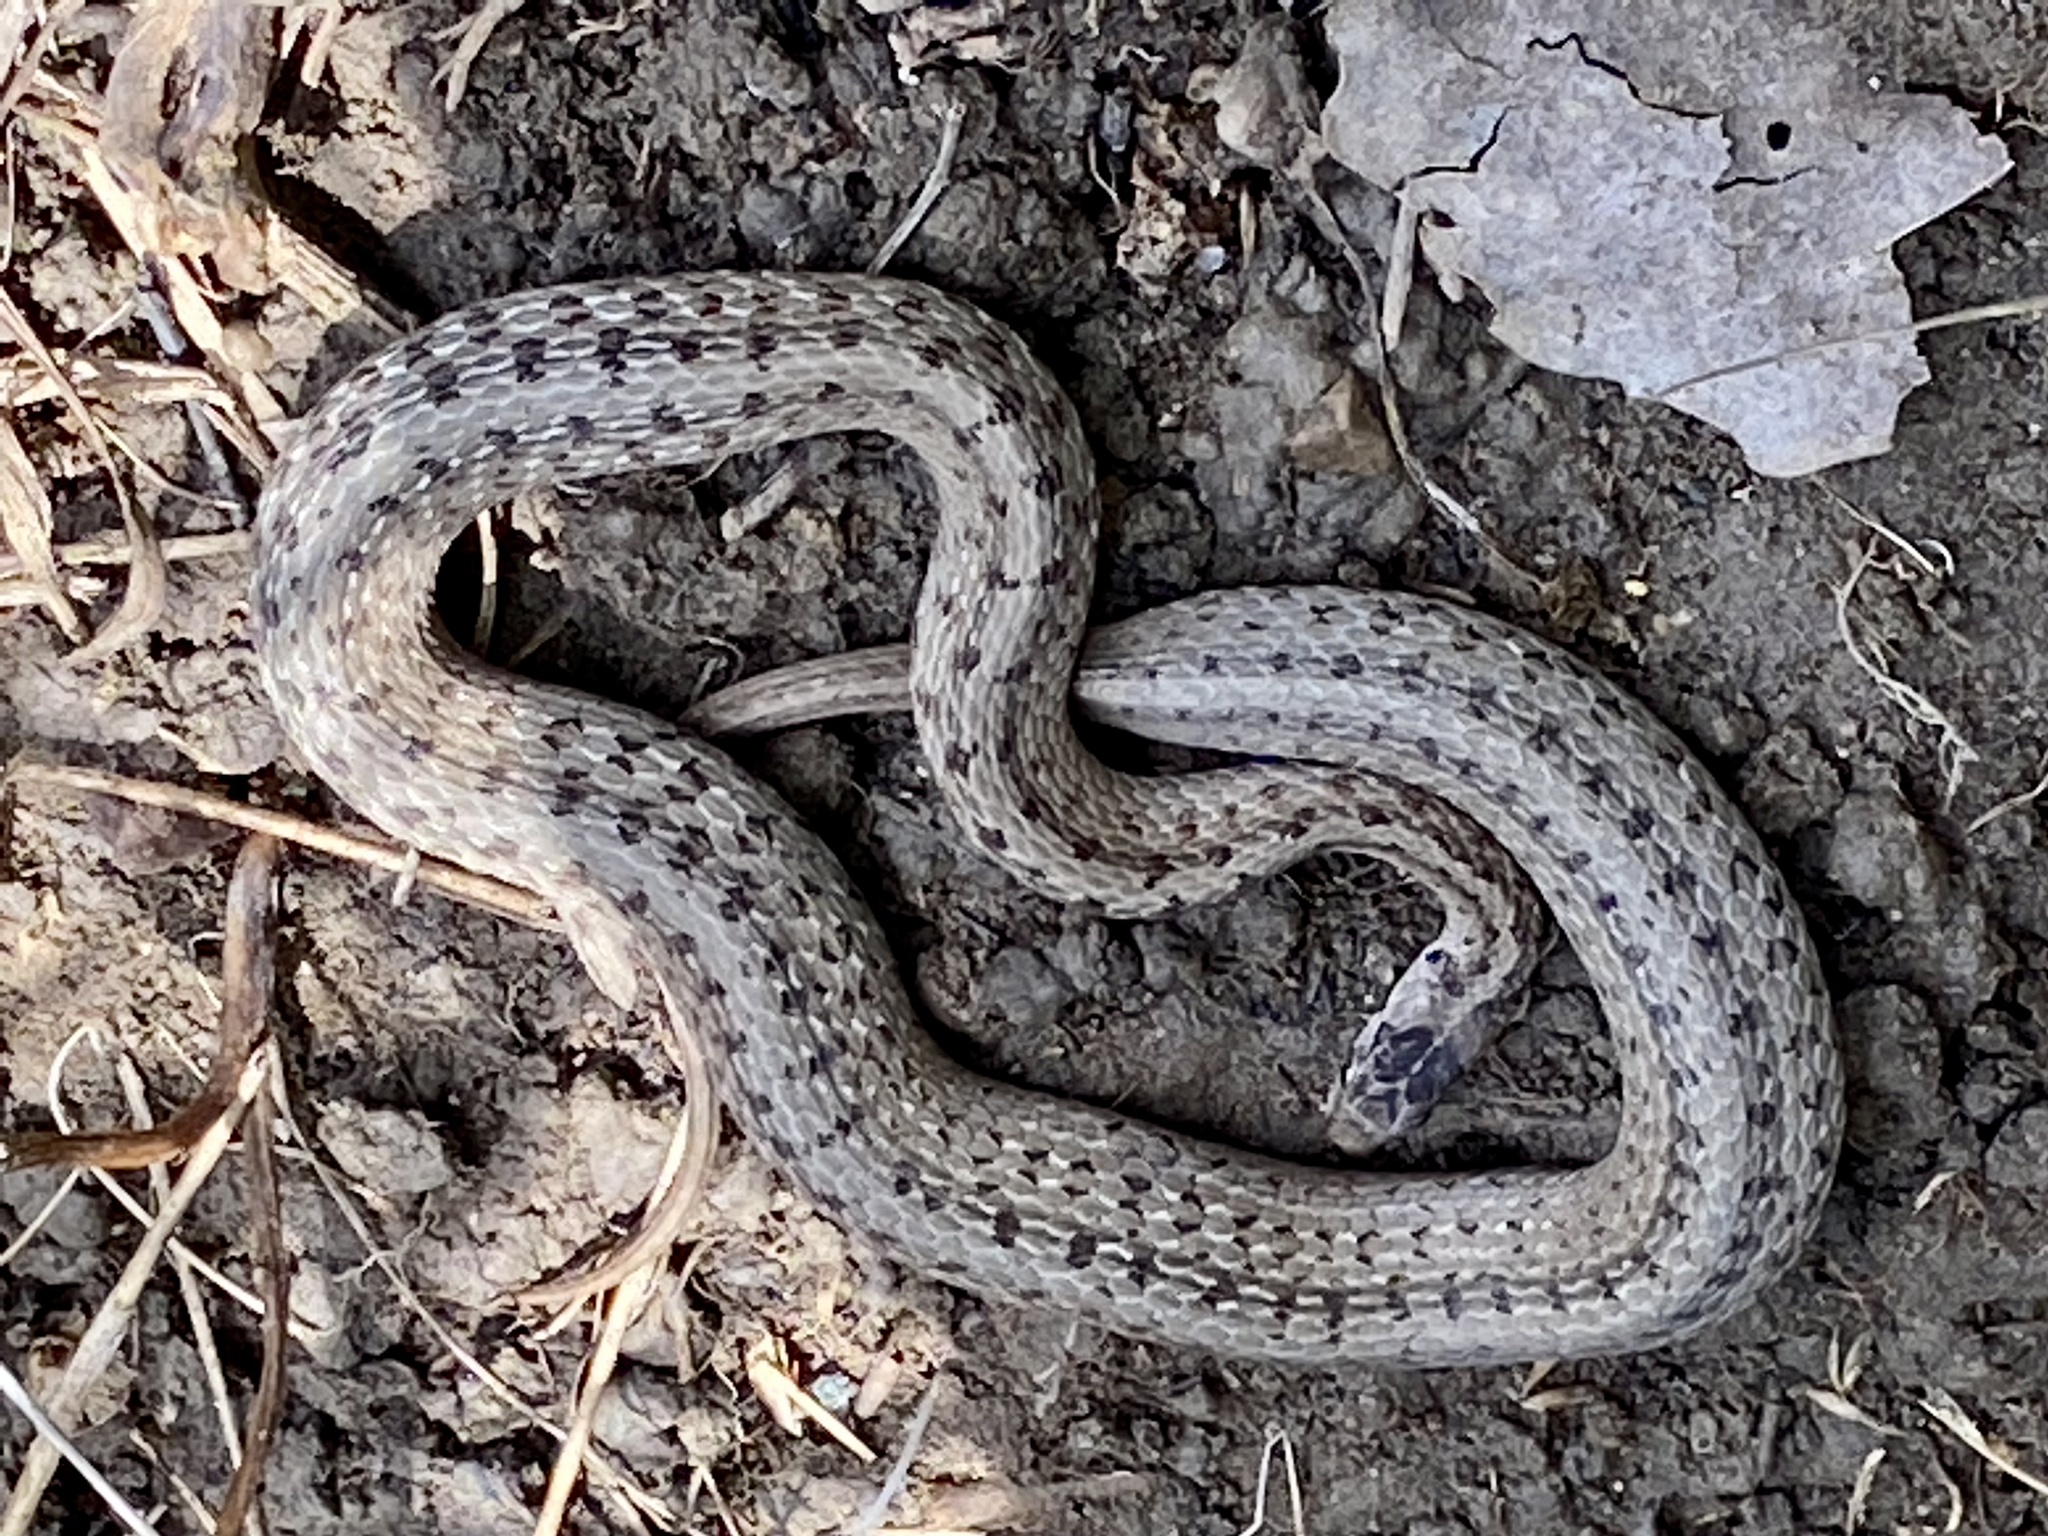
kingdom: Animalia
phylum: Chordata
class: Squamata
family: Colubridae
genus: Storeria
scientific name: Storeria dekayi
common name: (dekay’s) brown snake
